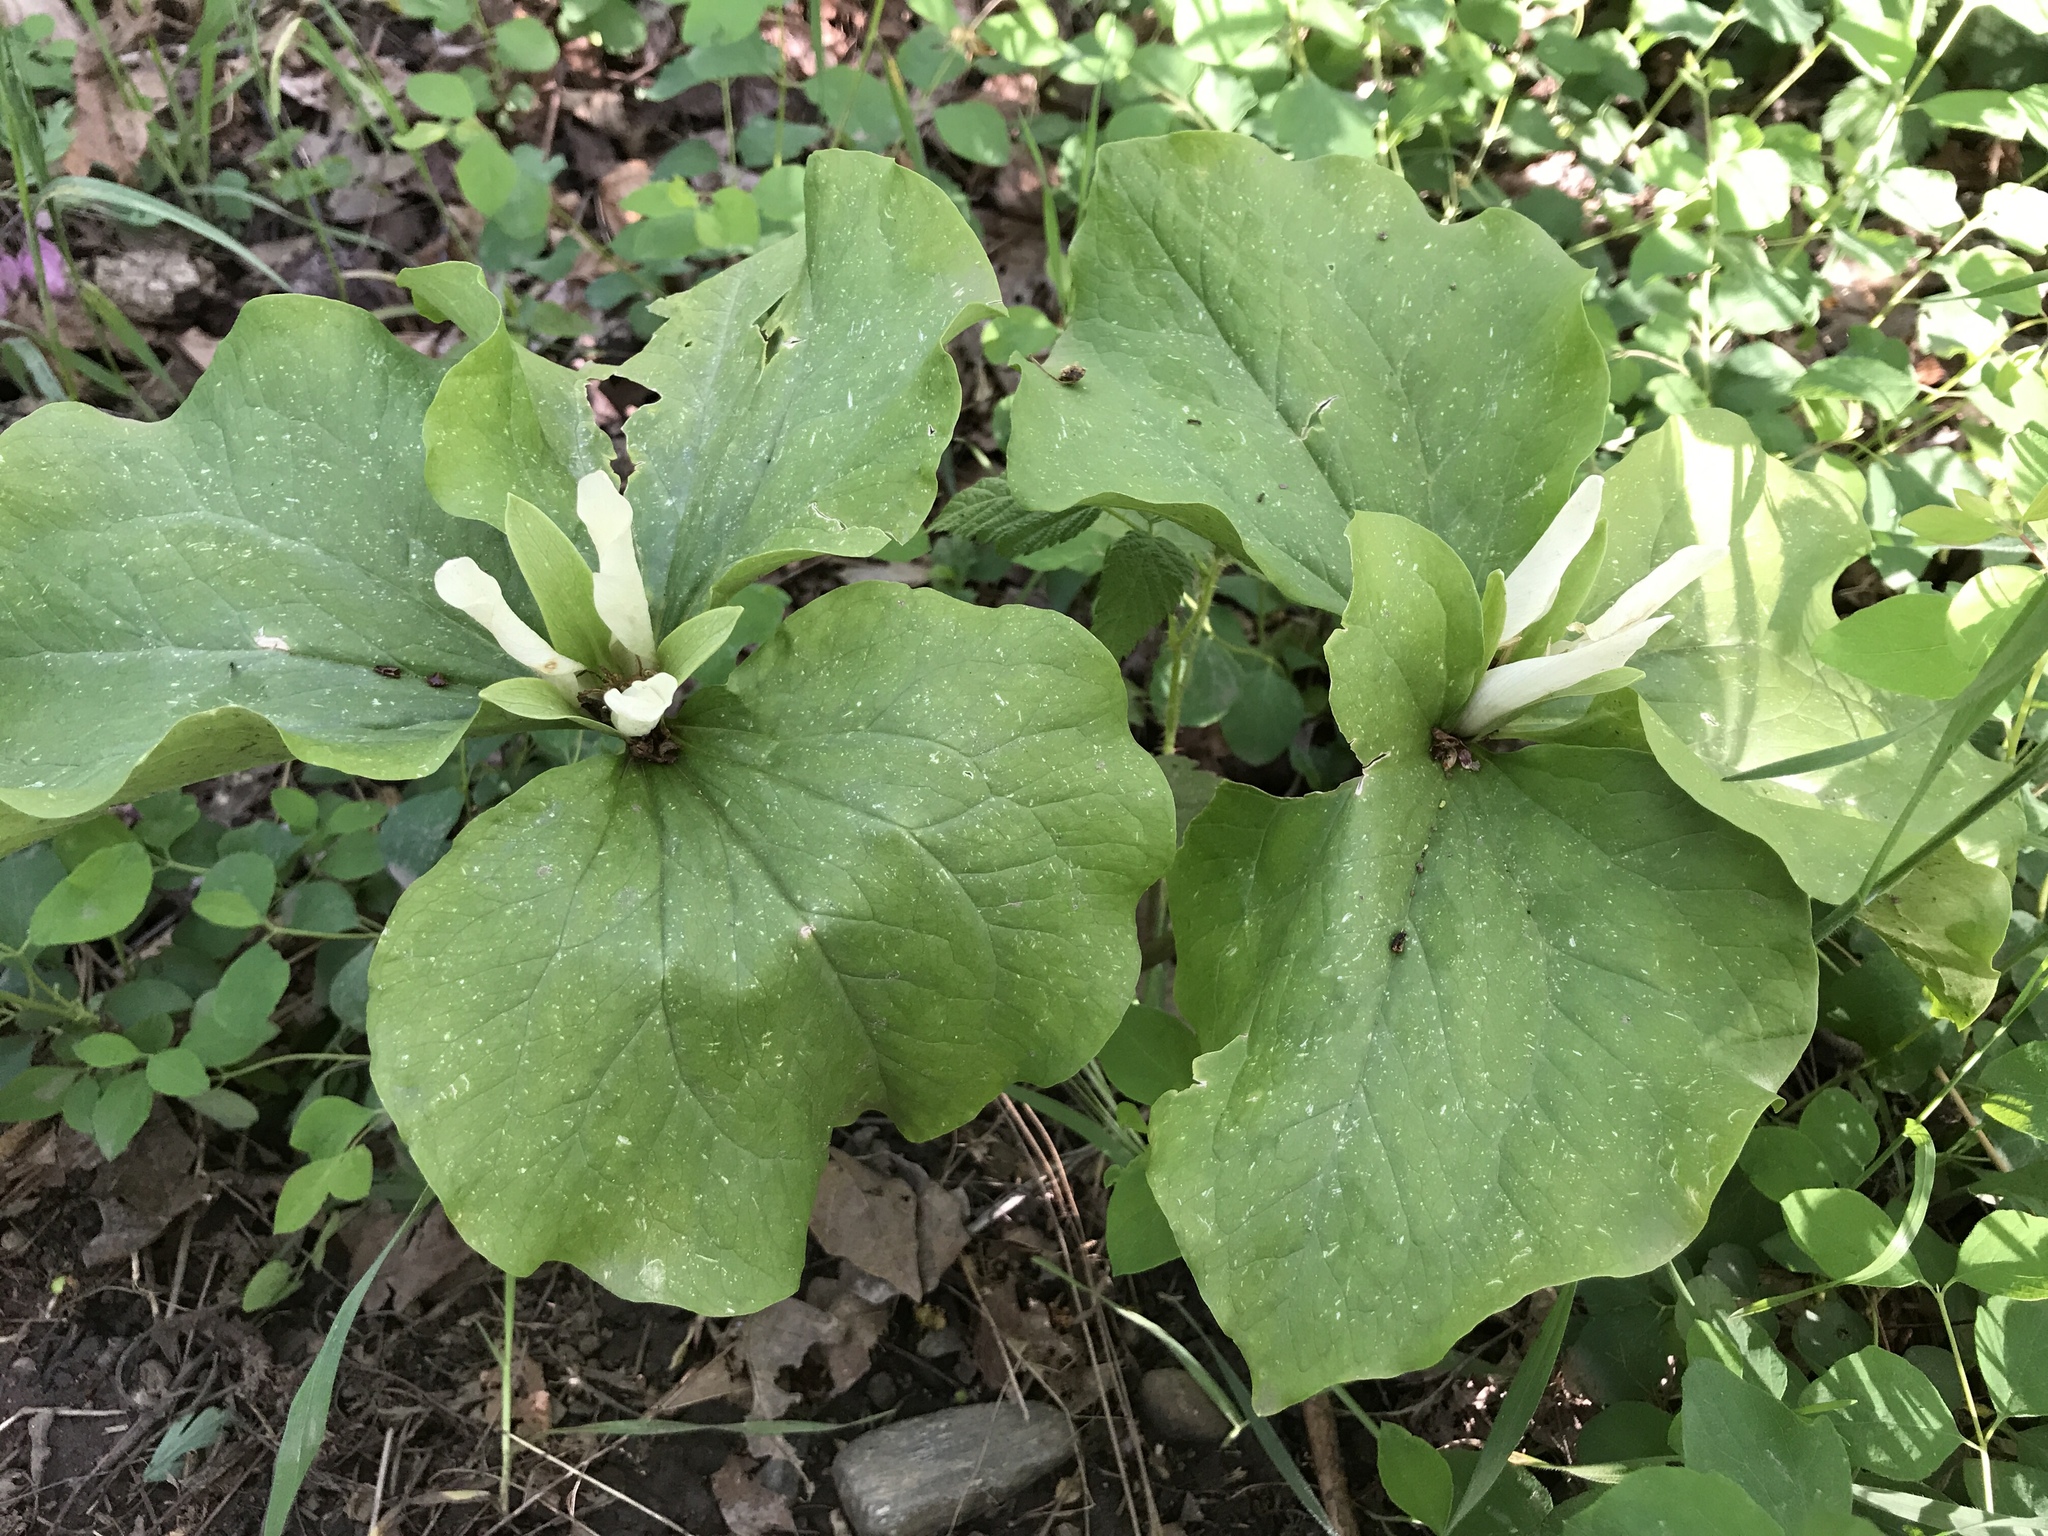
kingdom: Plantae
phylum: Tracheophyta
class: Liliopsida
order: Liliales
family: Melanthiaceae
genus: Trillium
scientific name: Trillium albidum
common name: Freeman's trillium
